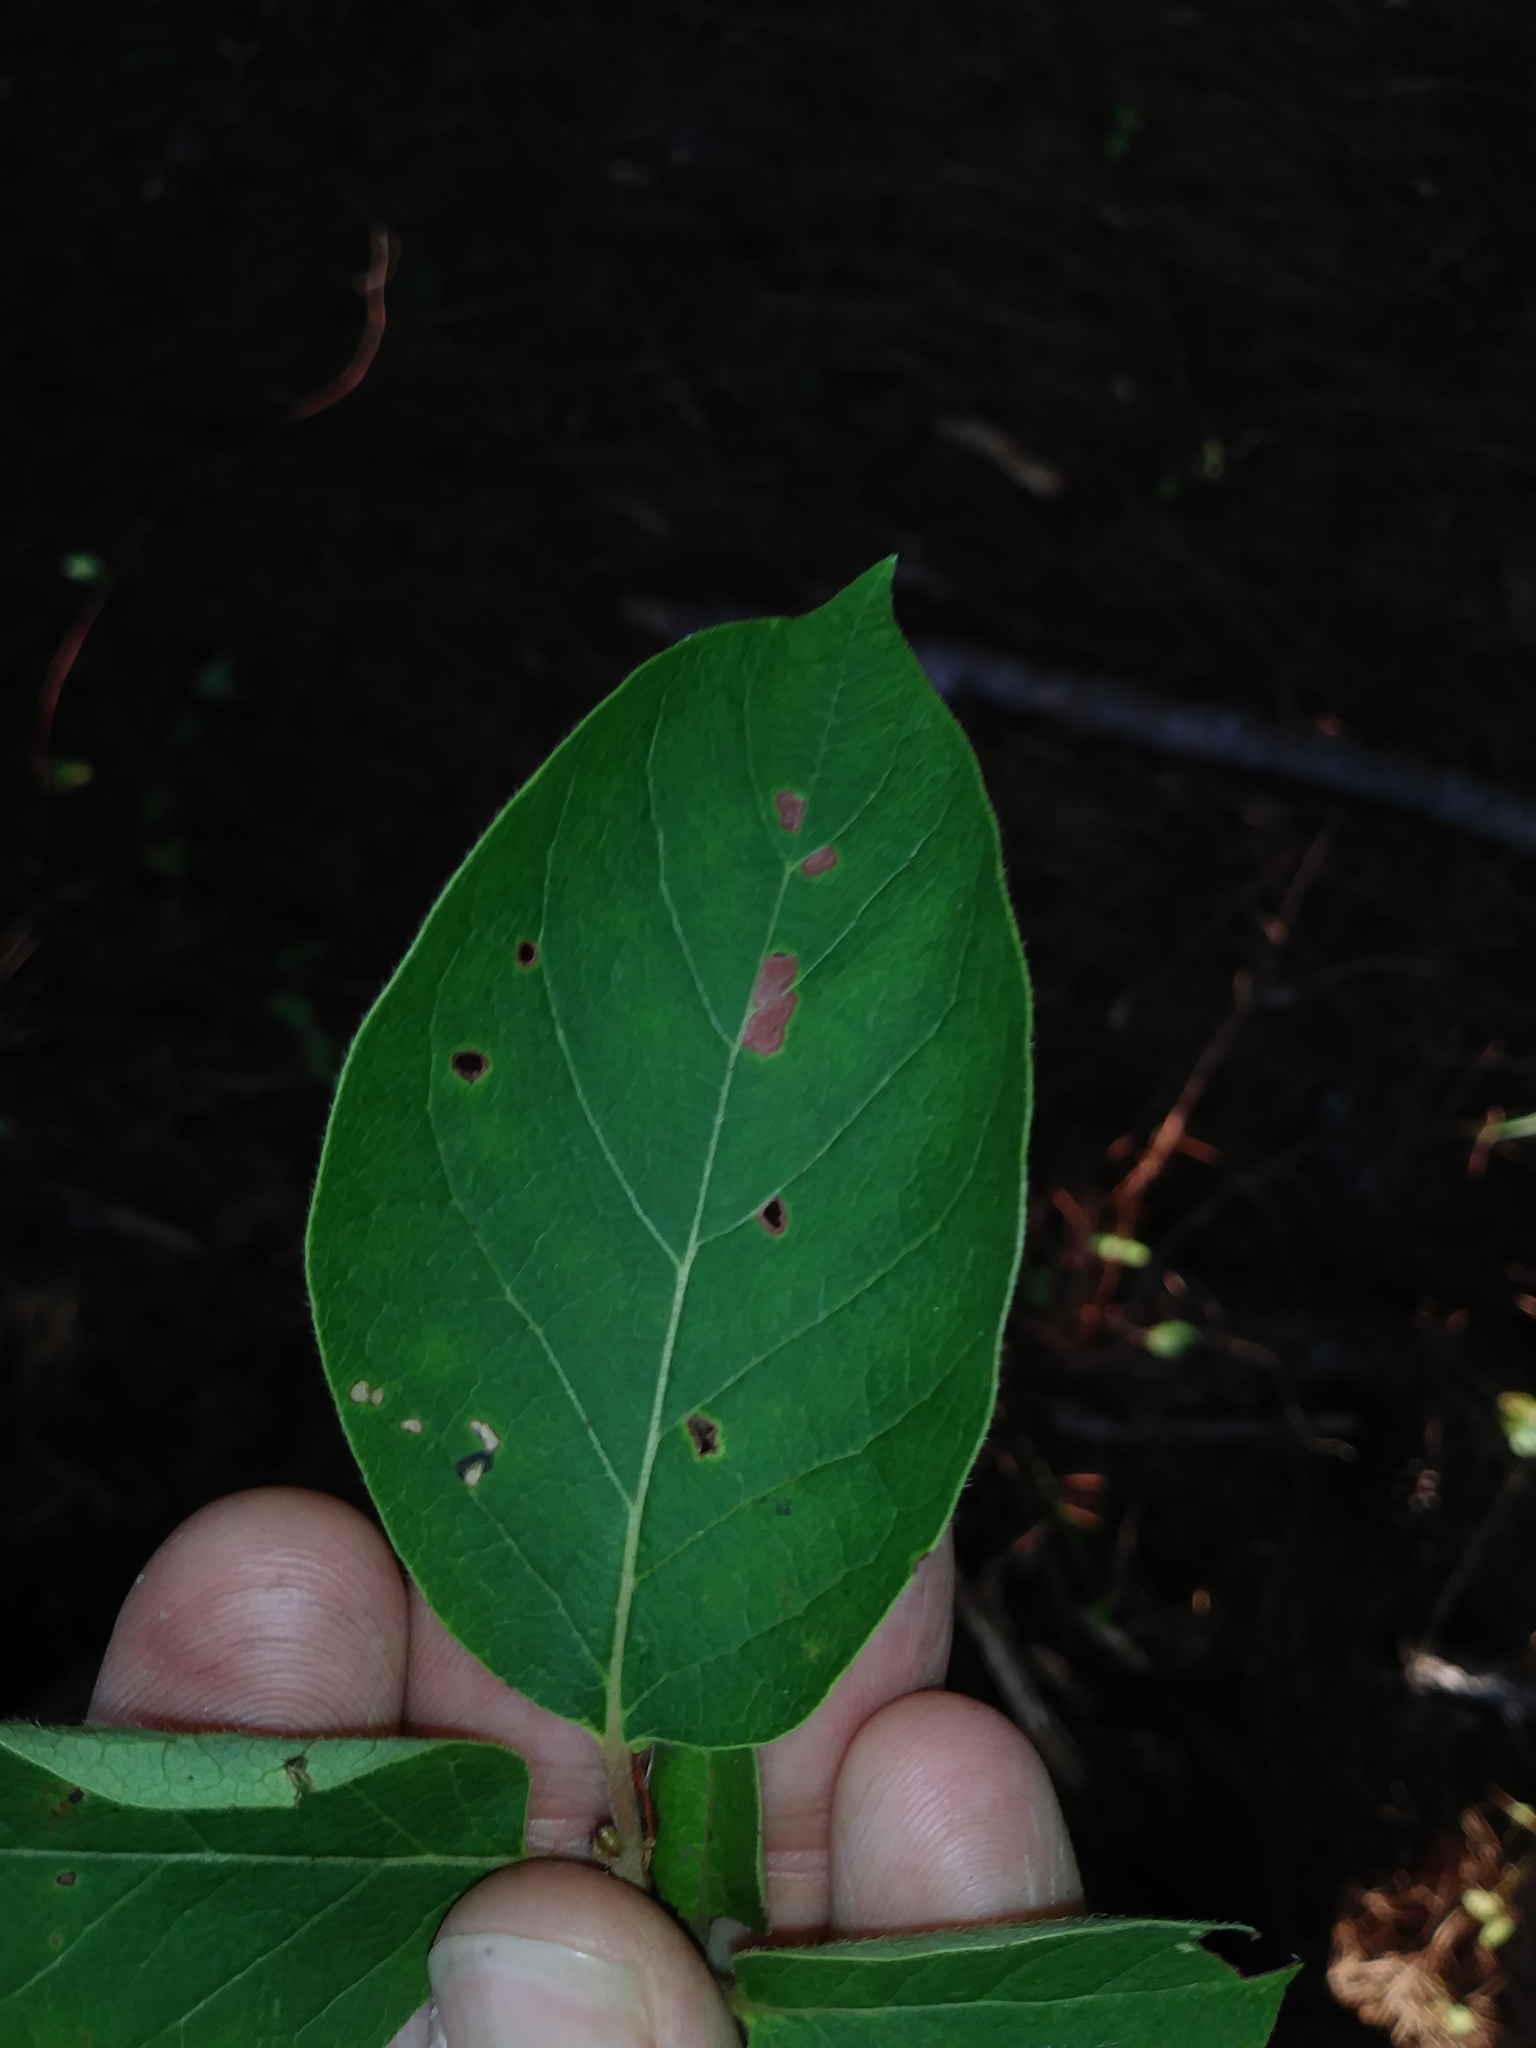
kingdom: Plantae
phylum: Tracheophyta
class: Magnoliopsida
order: Ericales
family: Ebenaceae
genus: Diospyros
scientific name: Diospyros virginiana
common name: Persimmon
